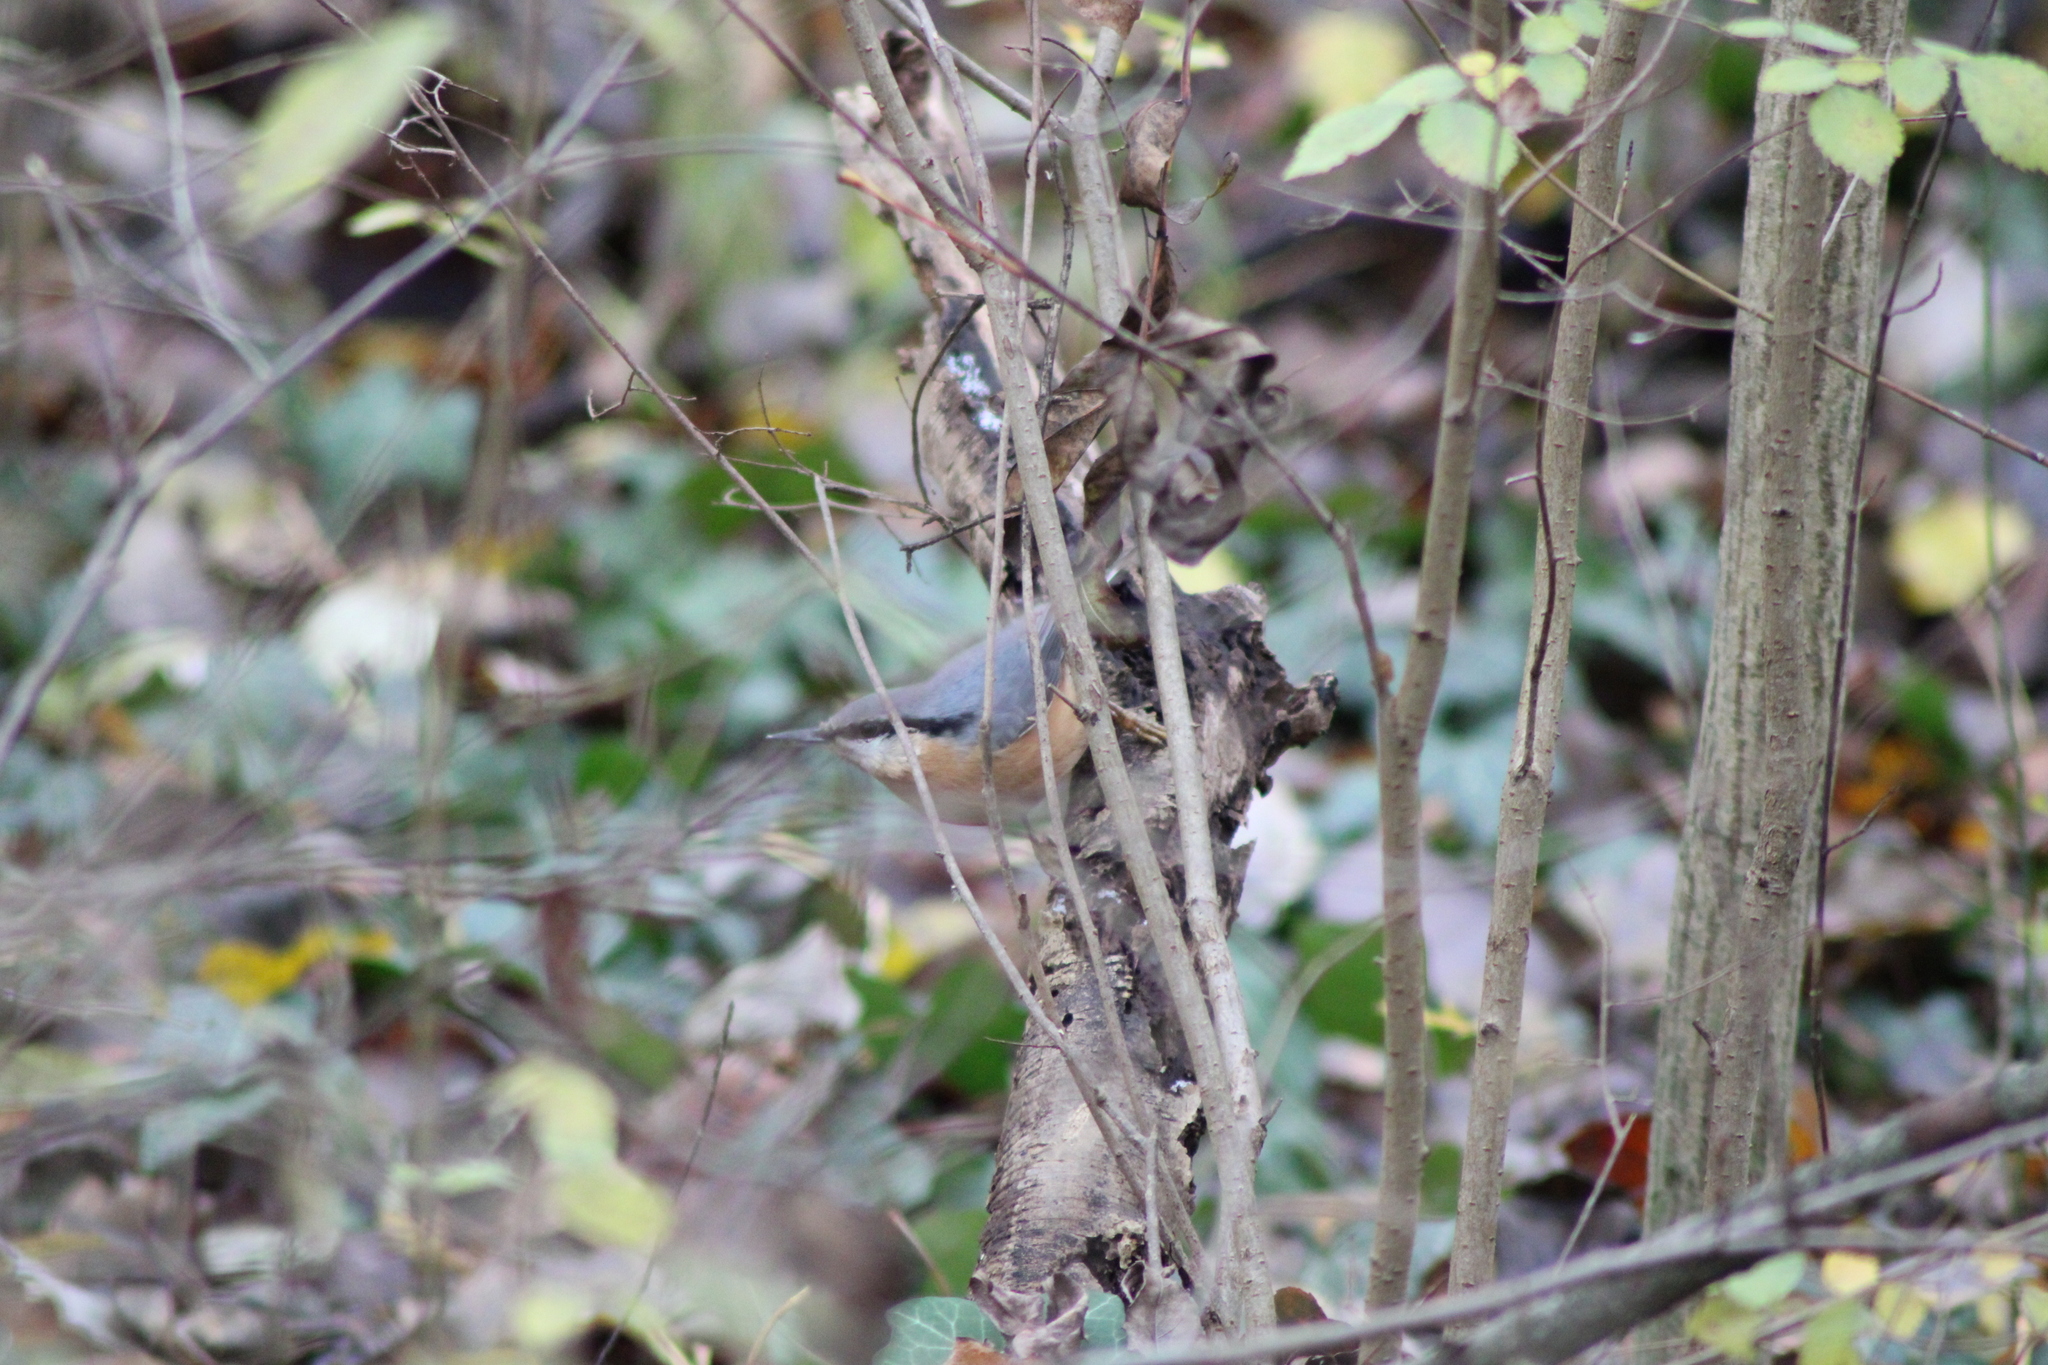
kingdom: Animalia
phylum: Chordata
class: Aves
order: Passeriformes
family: Sittidae
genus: Sitta
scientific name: Sitta europaea
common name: Eurasian nuthatch
